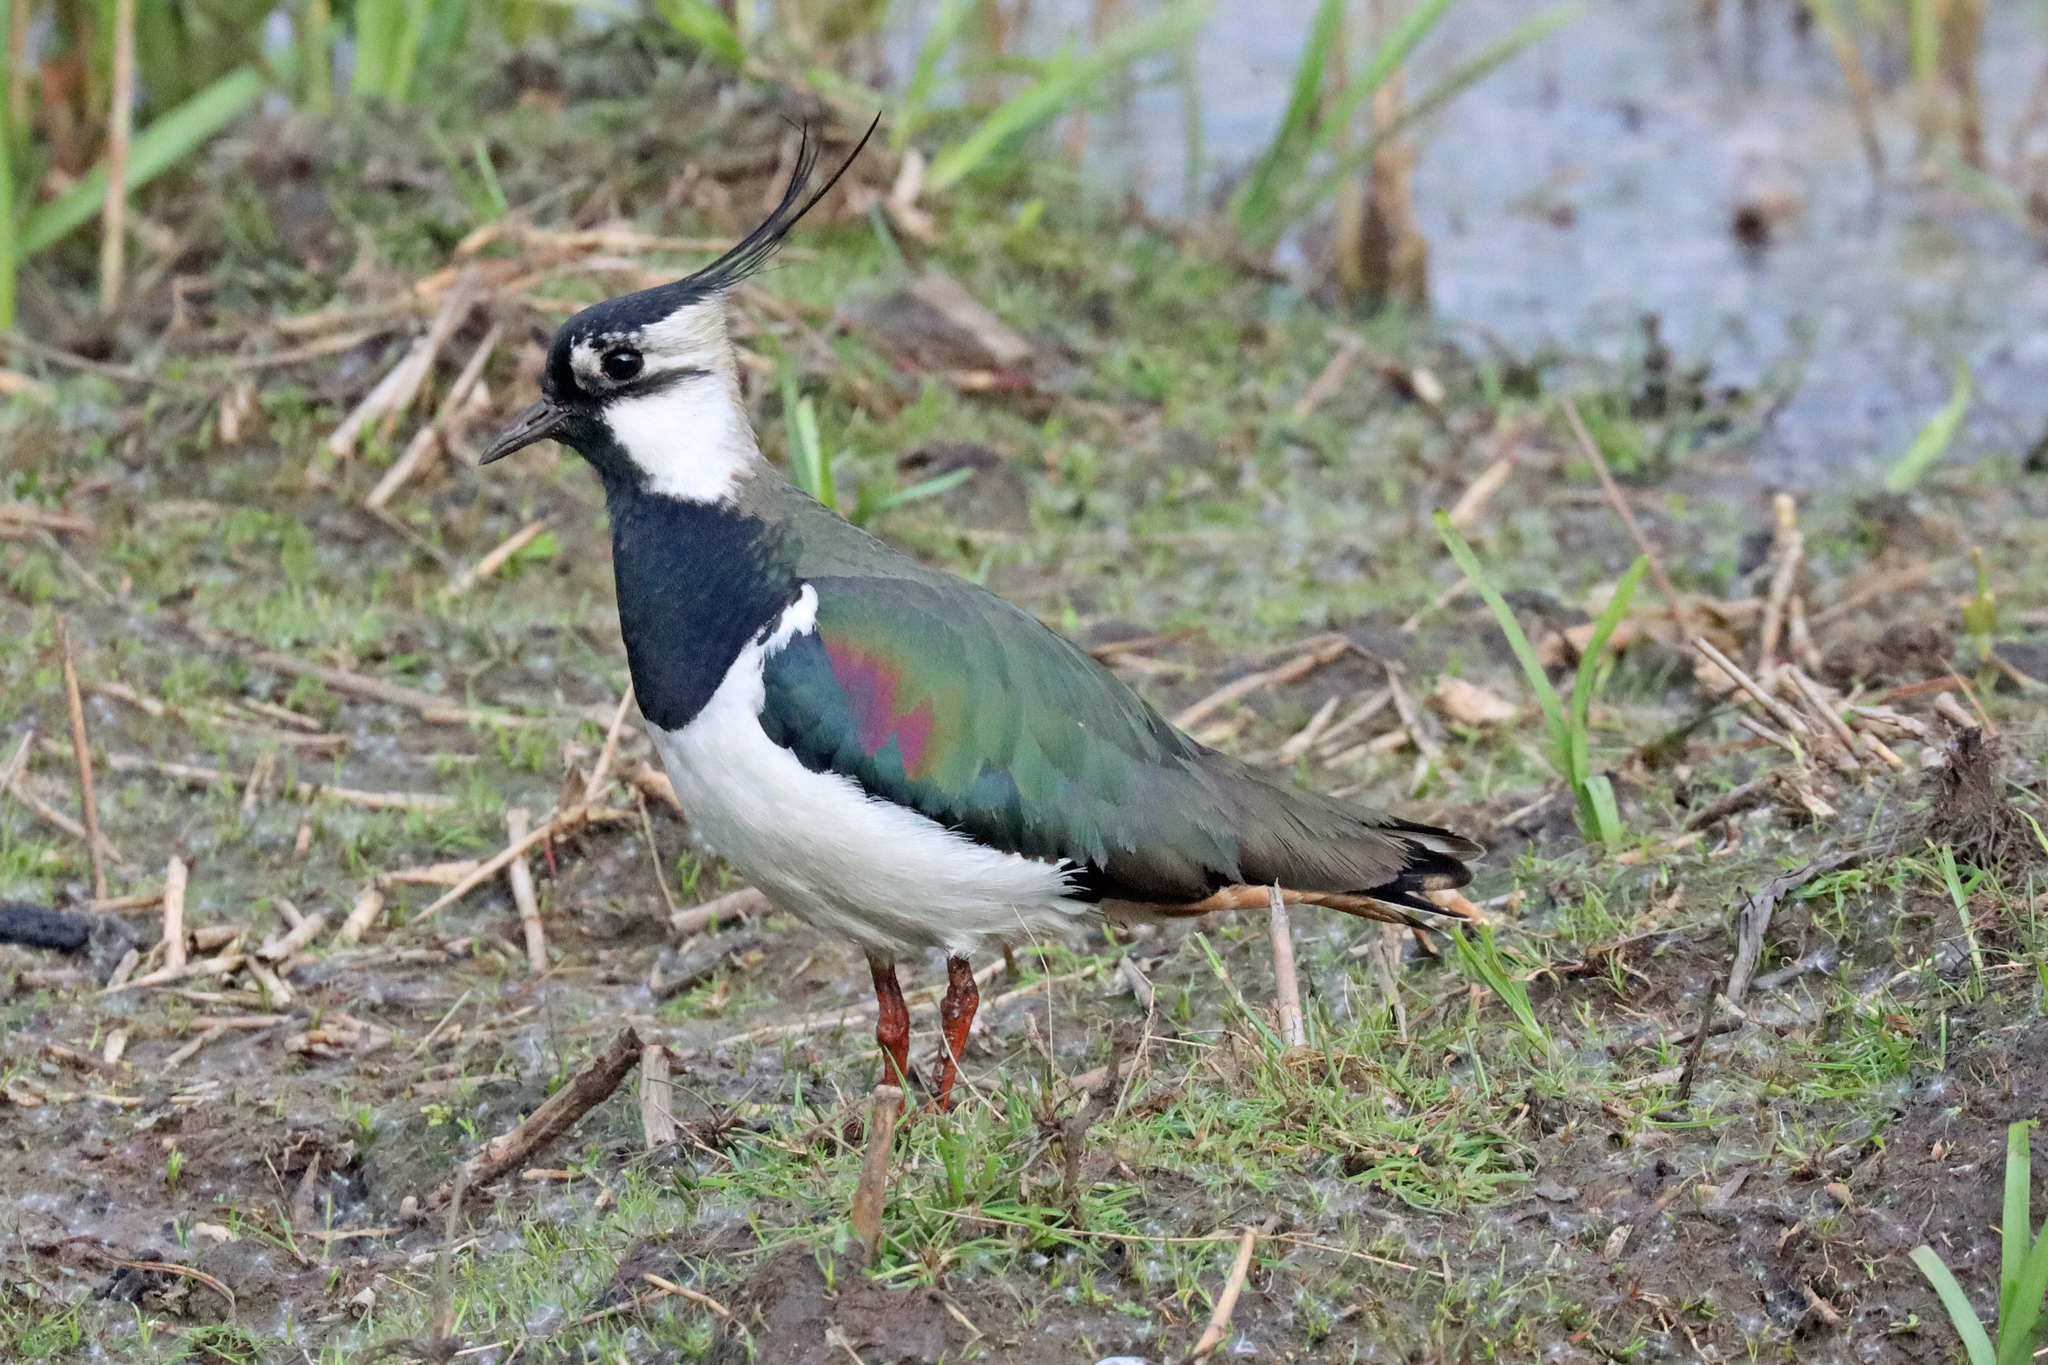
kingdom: Animalia
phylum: Chordata
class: Aves
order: Charadriiformes
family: Charadriidae
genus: Vanellus
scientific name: Vanellus vanellus
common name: Northern lapwing
